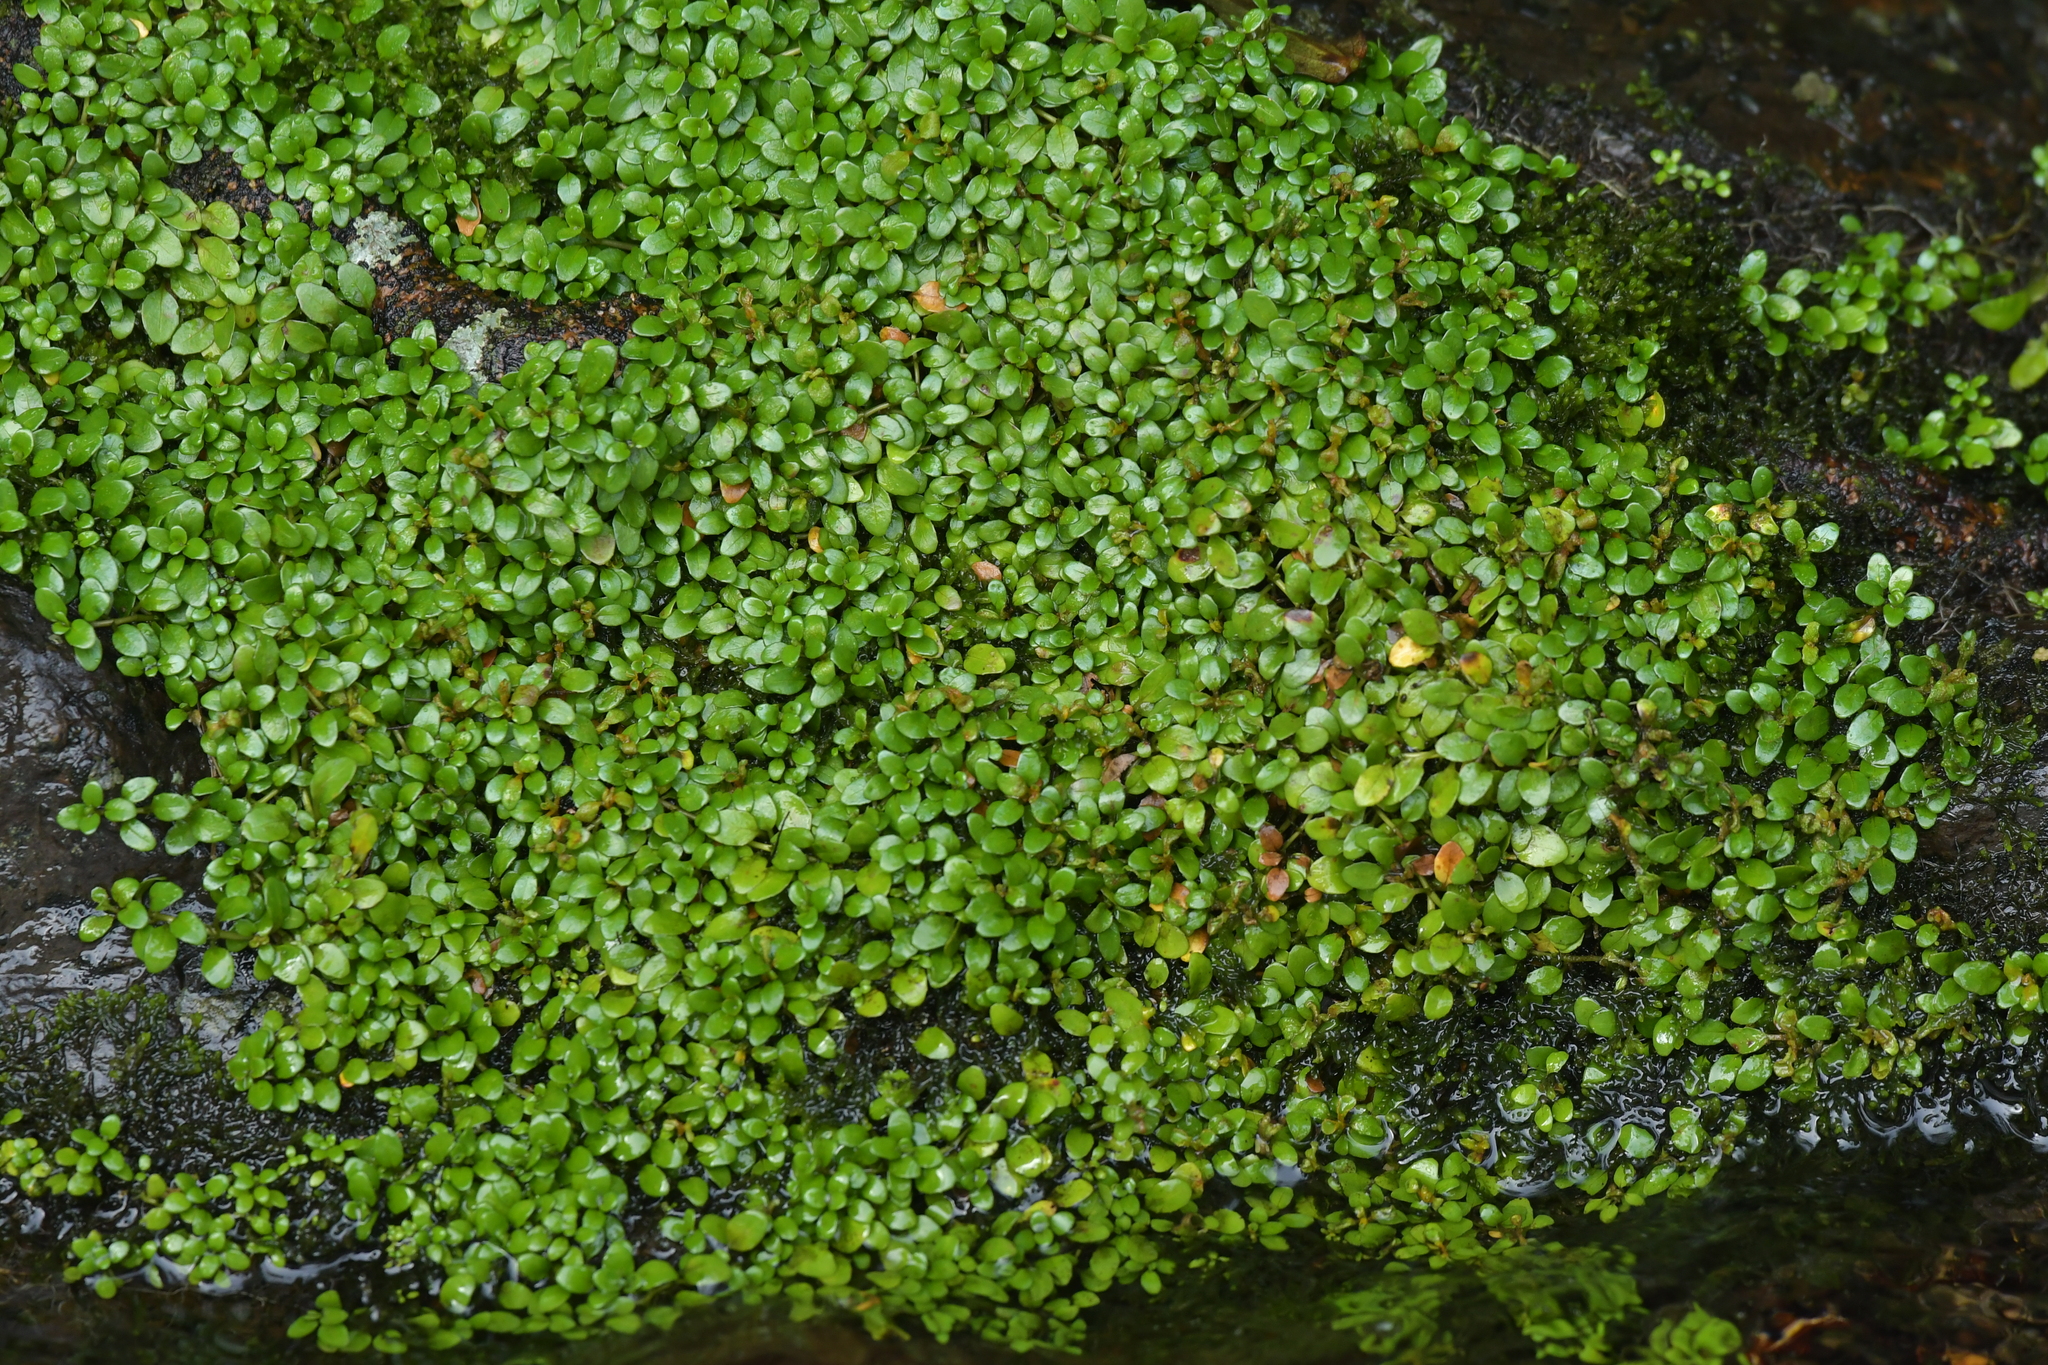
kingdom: Plantae
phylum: Tracheophyta
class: Magnoliopsida
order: Myrtales
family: Onagraceae
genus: Epilobium
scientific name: Epilobium brunnescens
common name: New zealand willowherb
